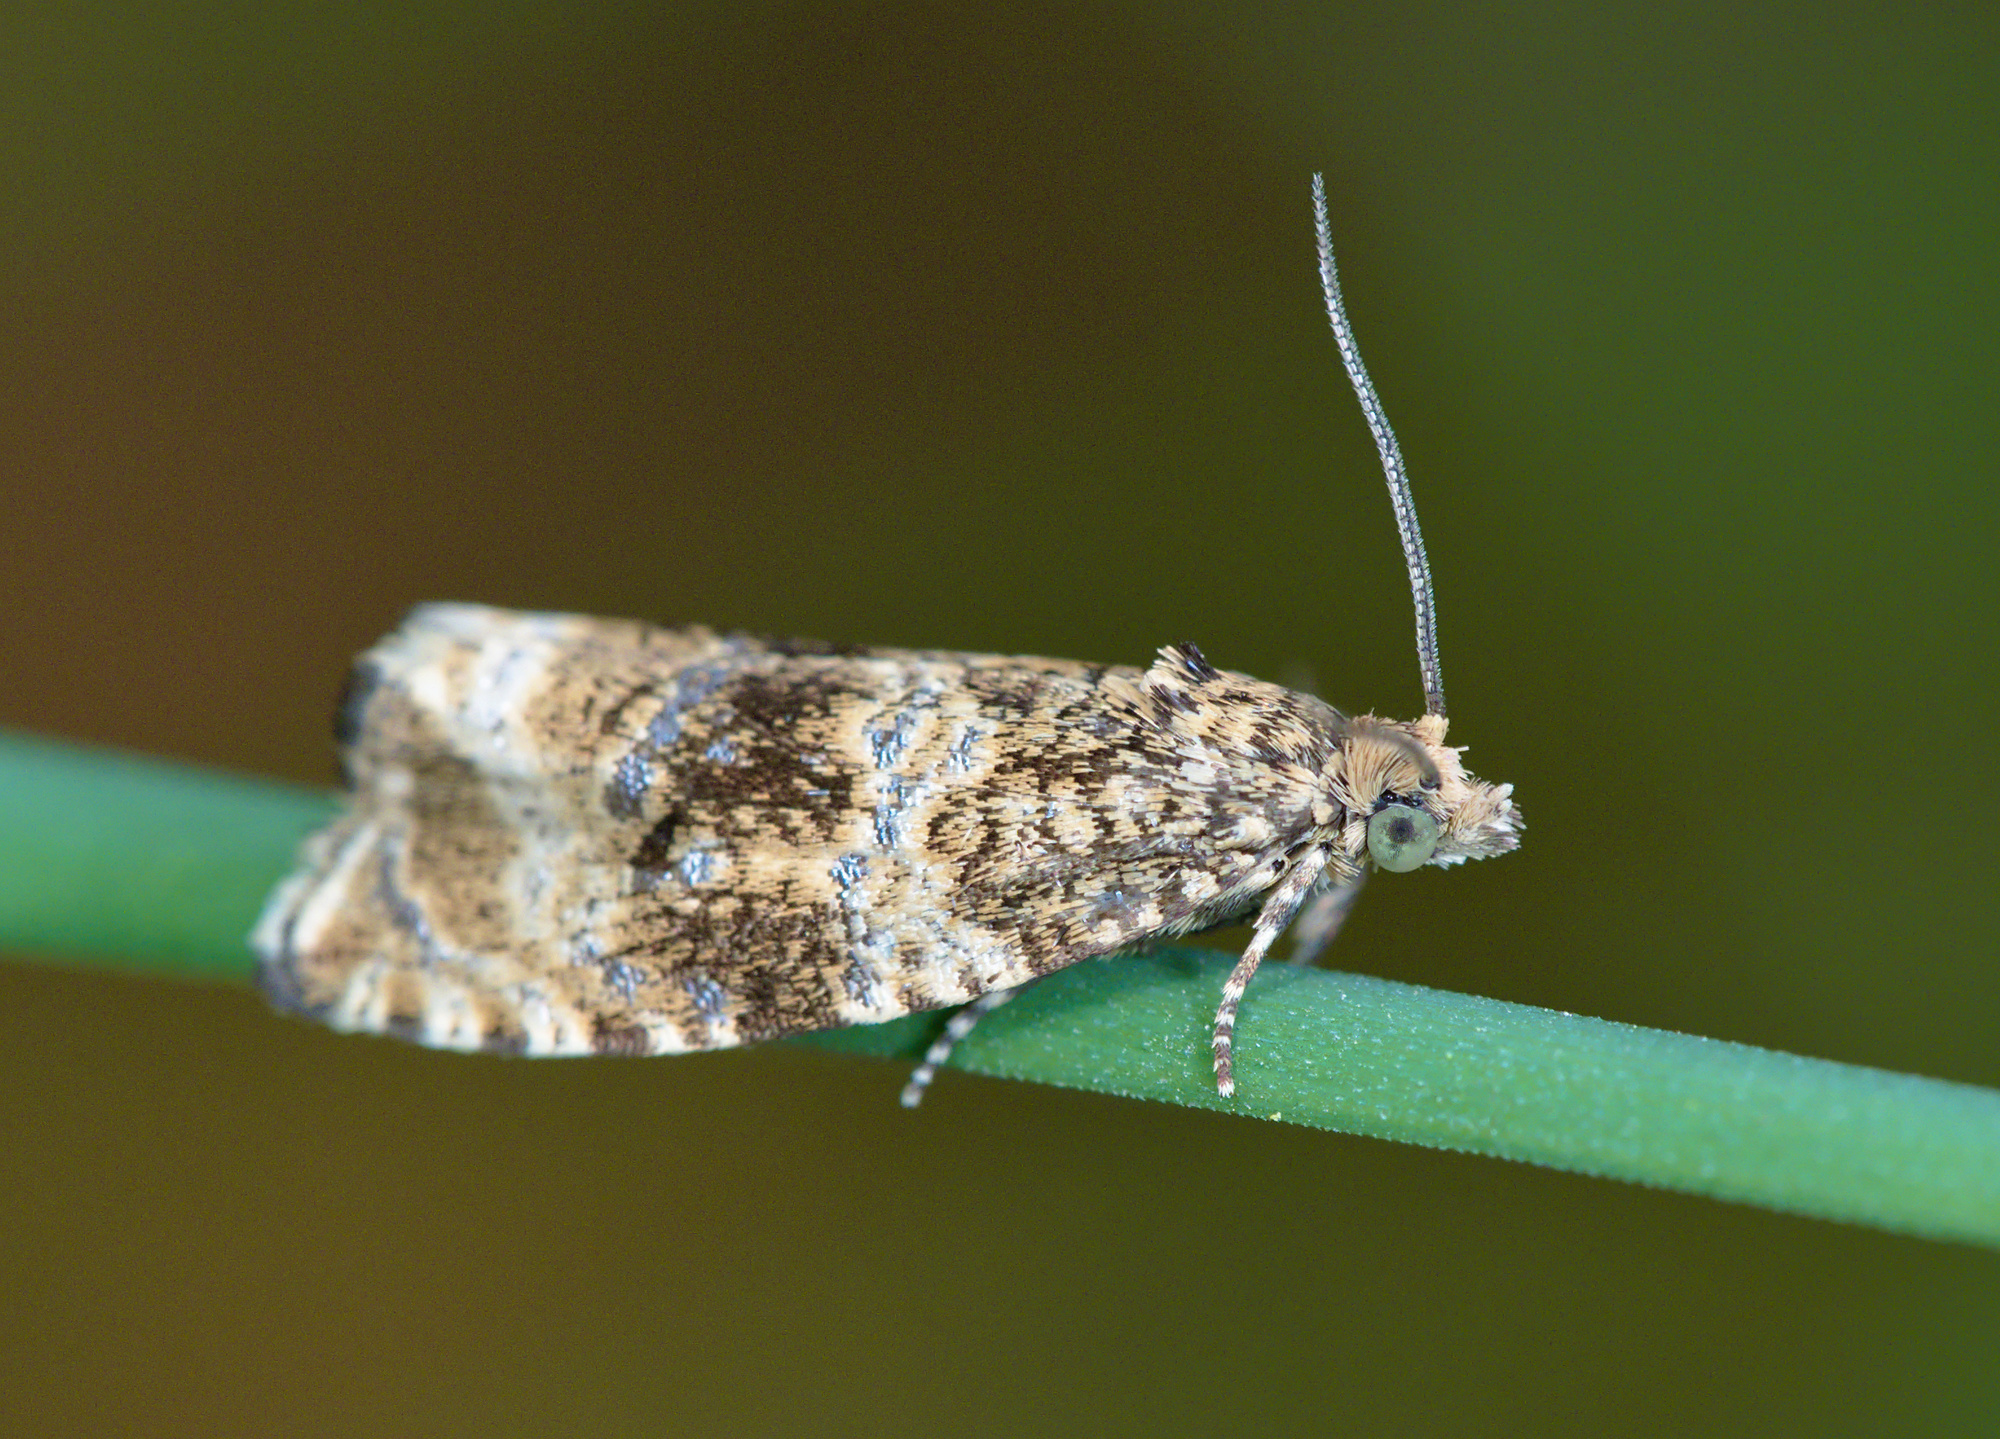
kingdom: Animalia
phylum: Arthropoda
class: Insecta
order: Lepidoptera
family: Tortricidae
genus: Syricoris
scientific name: Syricoris lacunana
